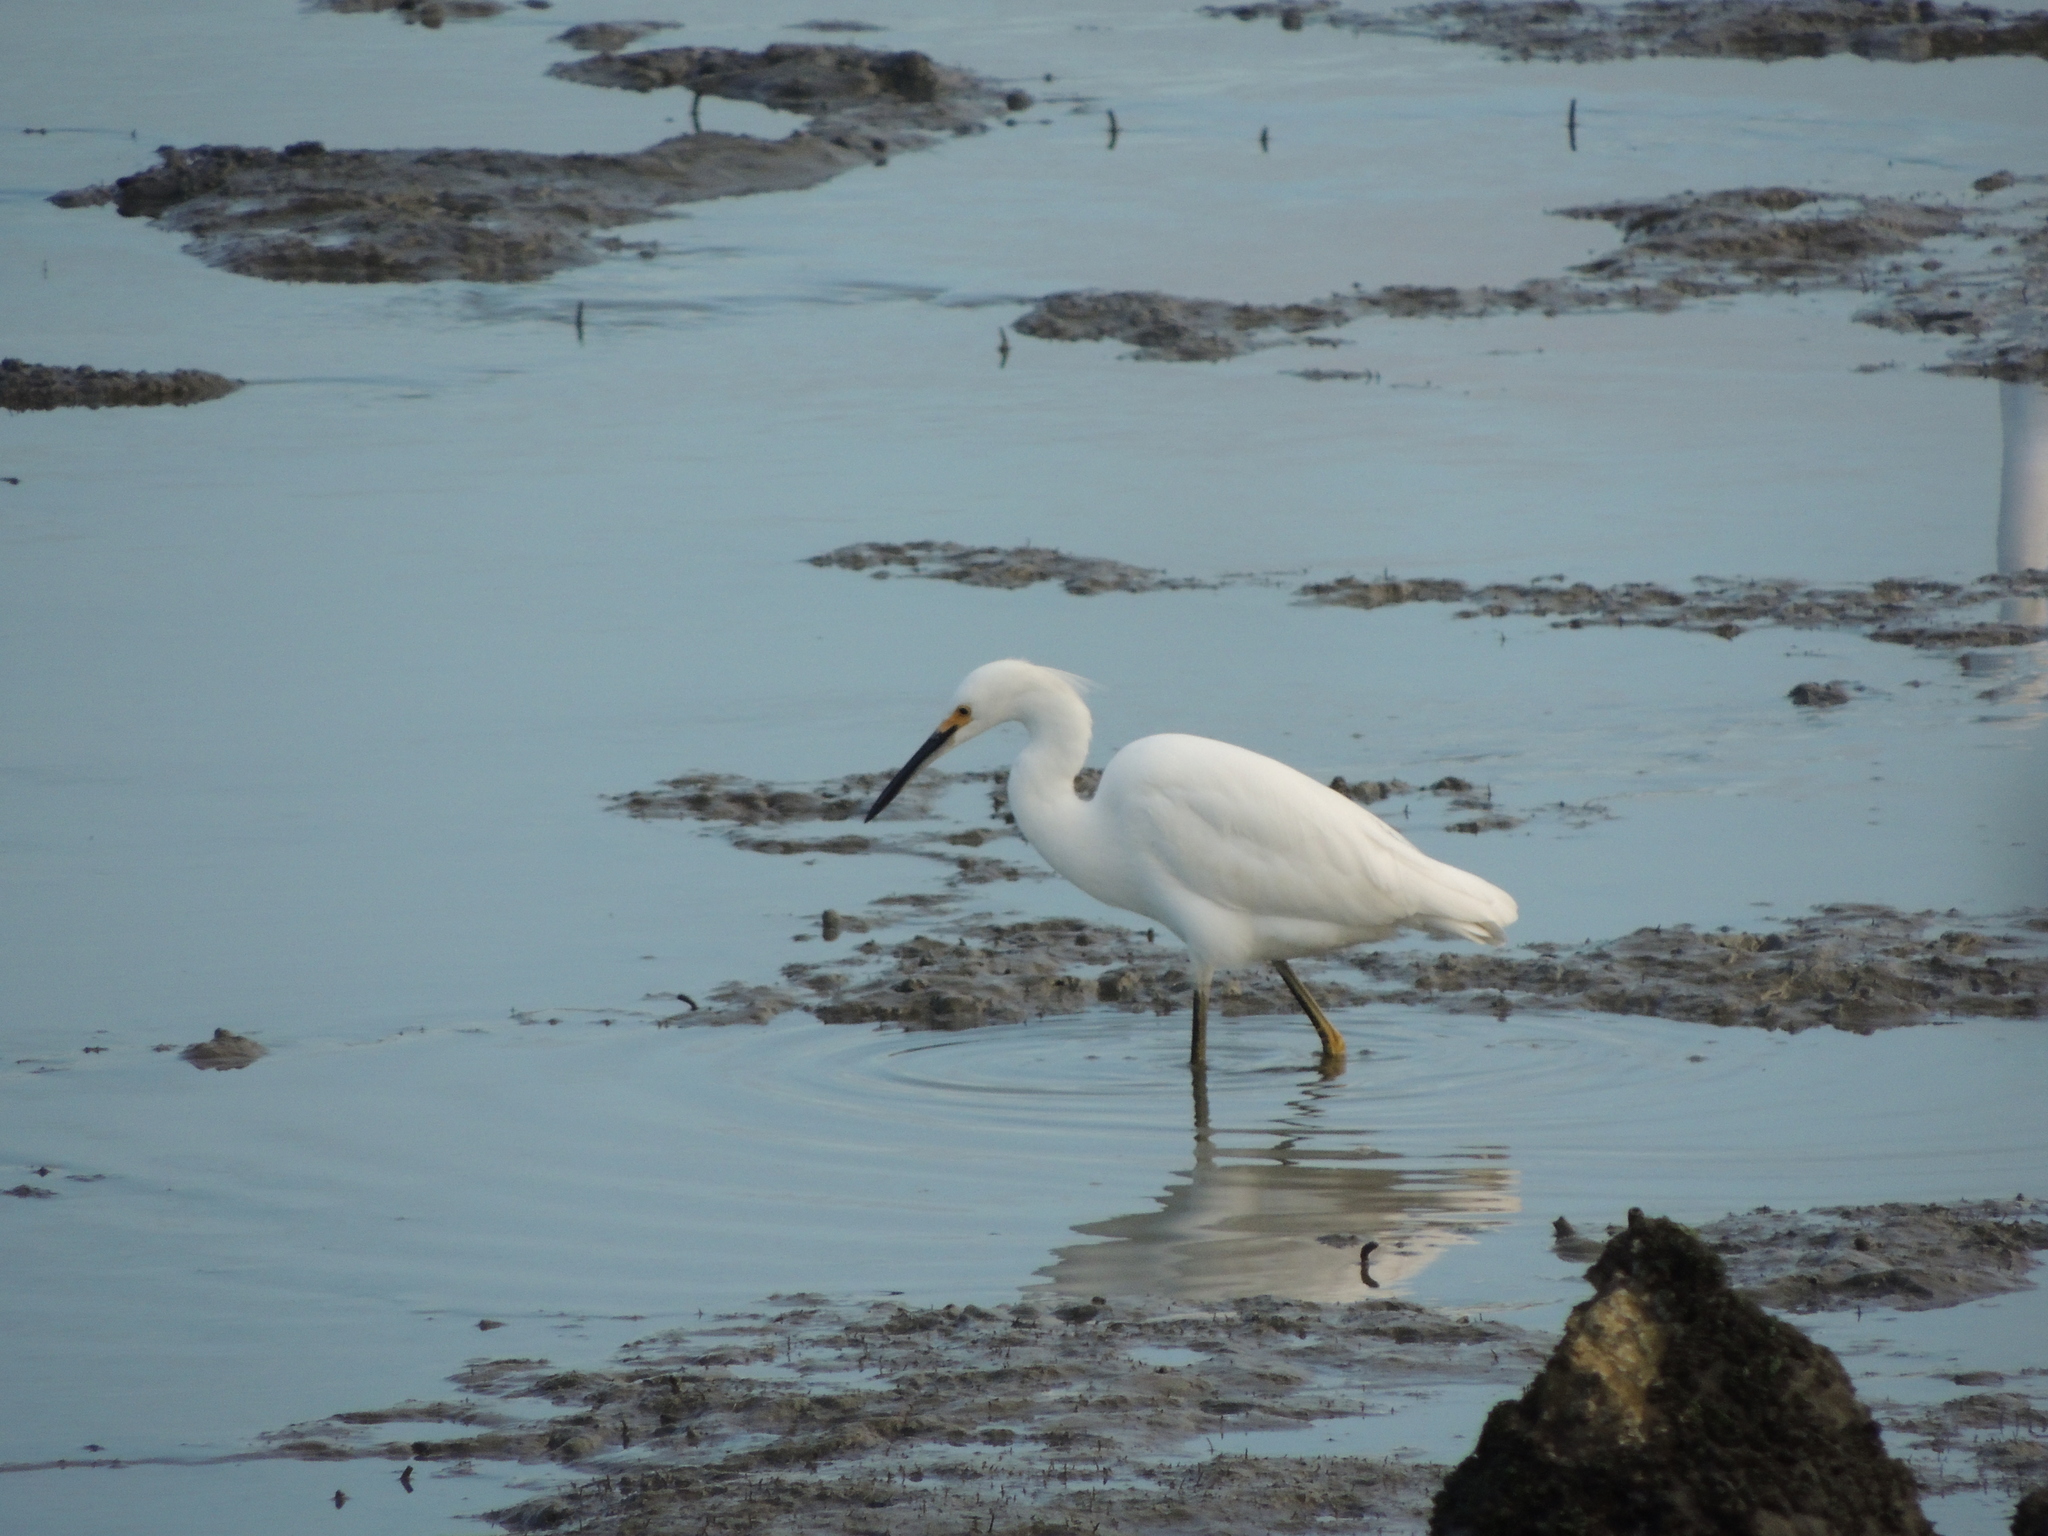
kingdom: Animalia
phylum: Chordata
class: Aves
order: Pelecaniformes
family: Ardeidae
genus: Egretta
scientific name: Egretta thula
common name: Snowy egret
